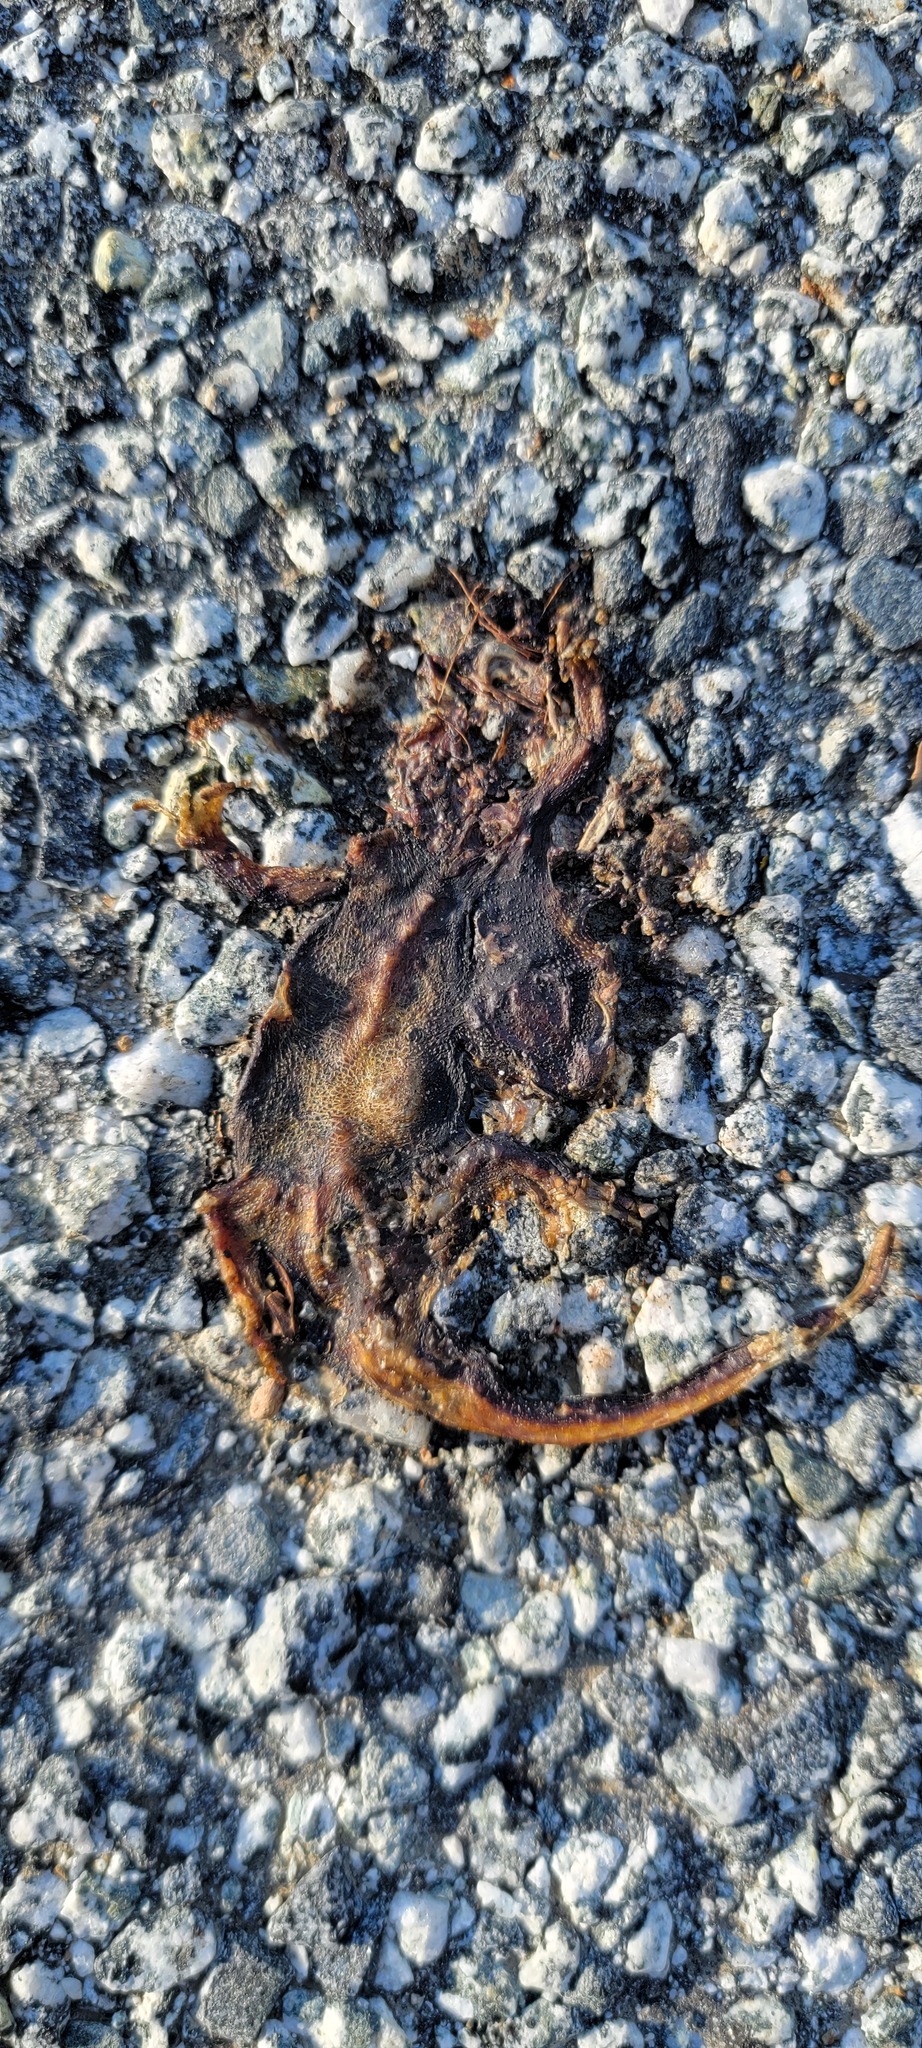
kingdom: Animalia
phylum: Chordata
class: Amphibia
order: Caudata
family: Salamandridae
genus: Taricha
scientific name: Taricha
